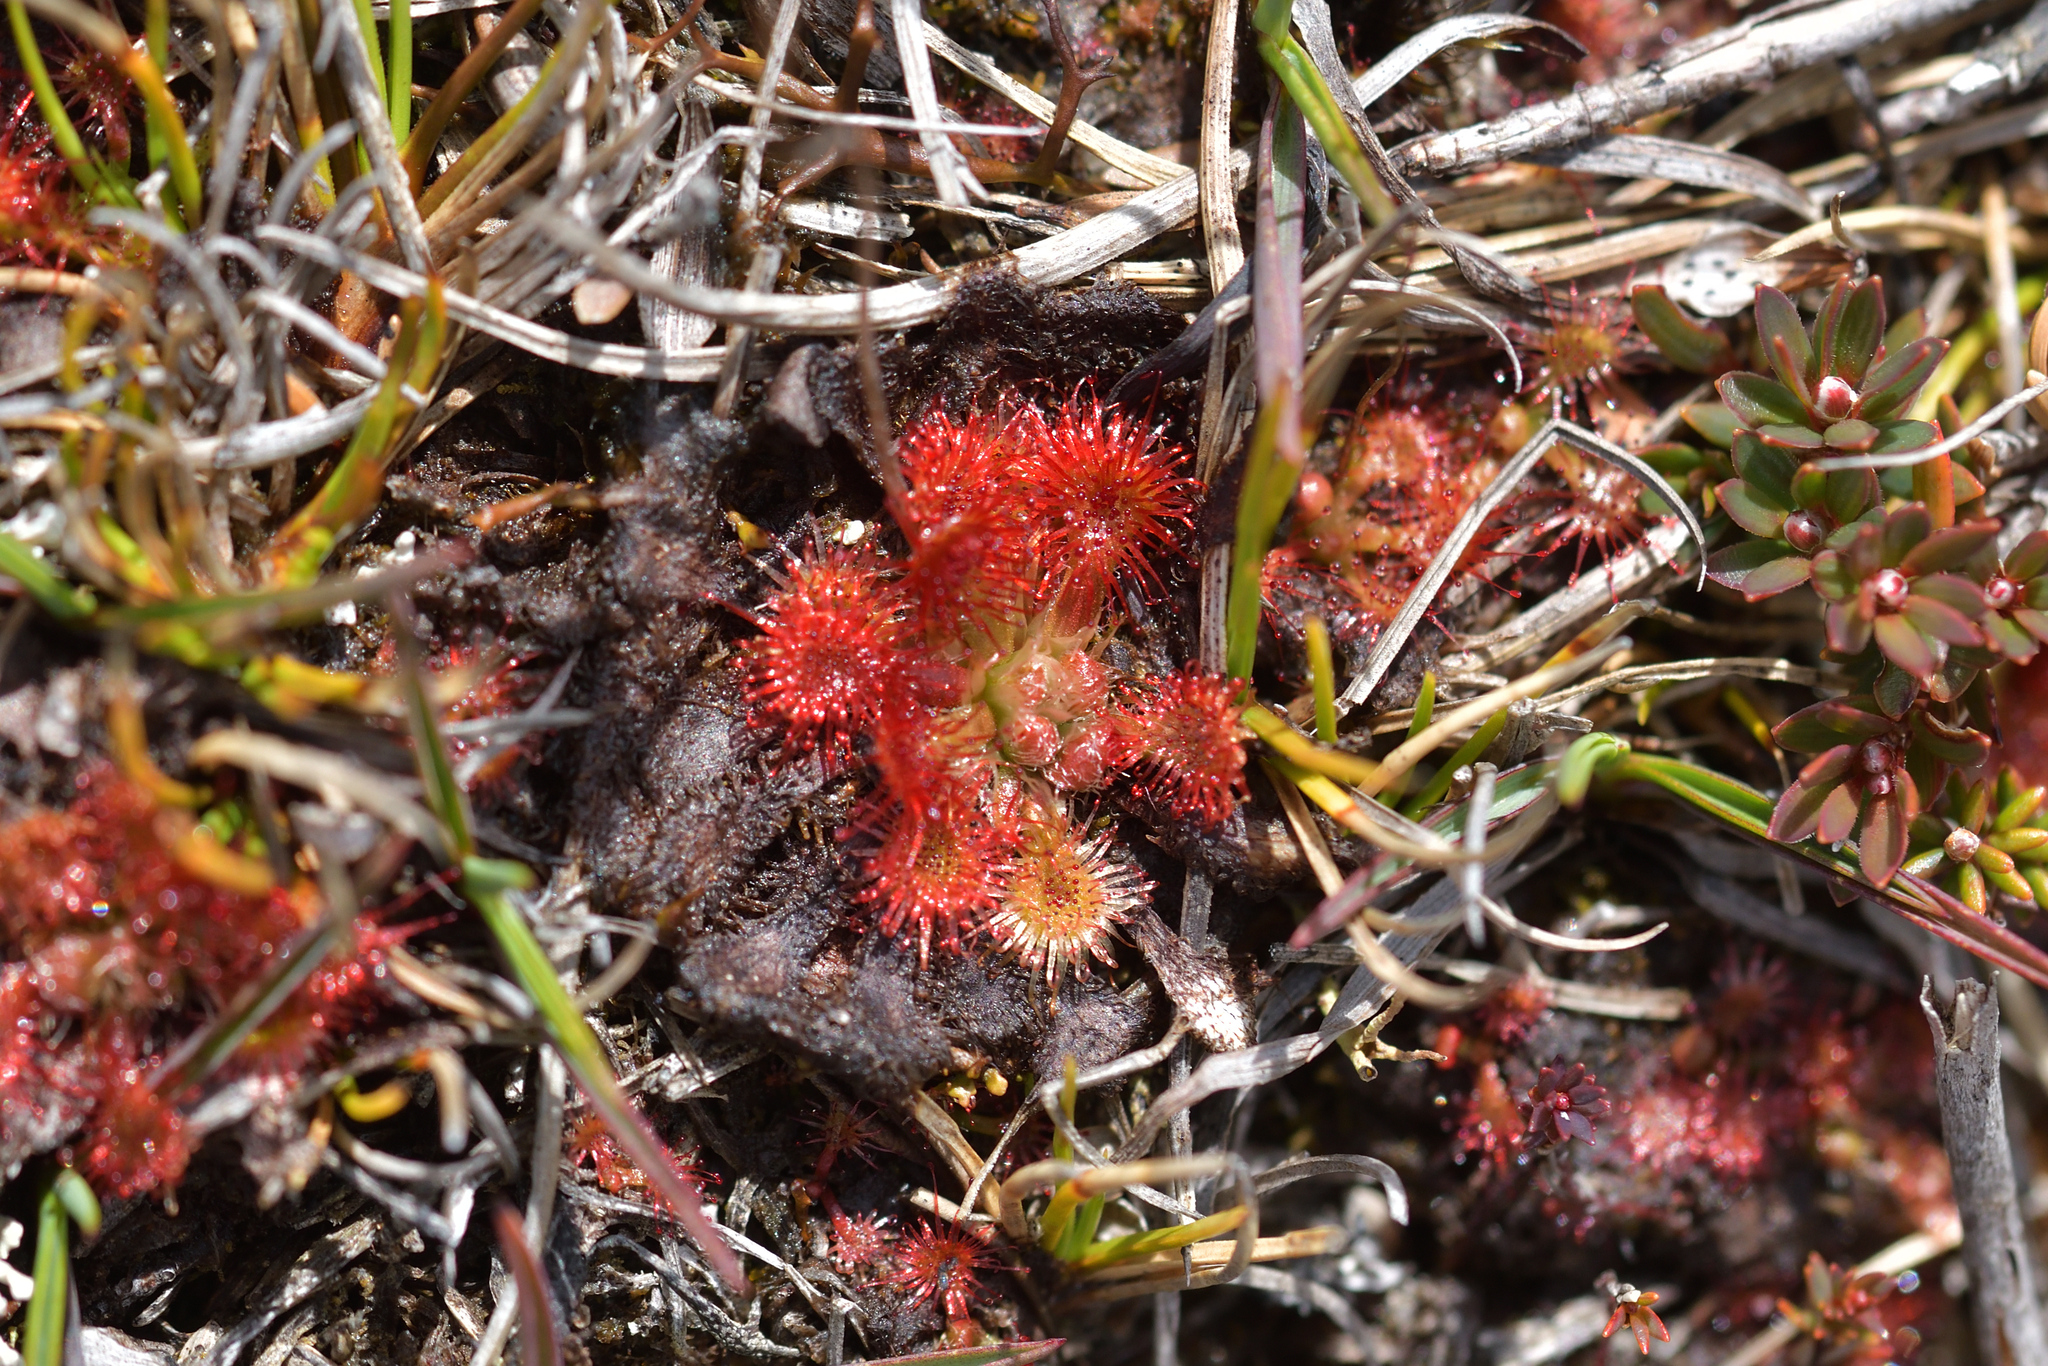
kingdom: Plantae
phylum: Tracheophyta
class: Magnoliopsida
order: Caryophyllales
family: Droseraceae
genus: Drosera
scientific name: Drosera spatulata
